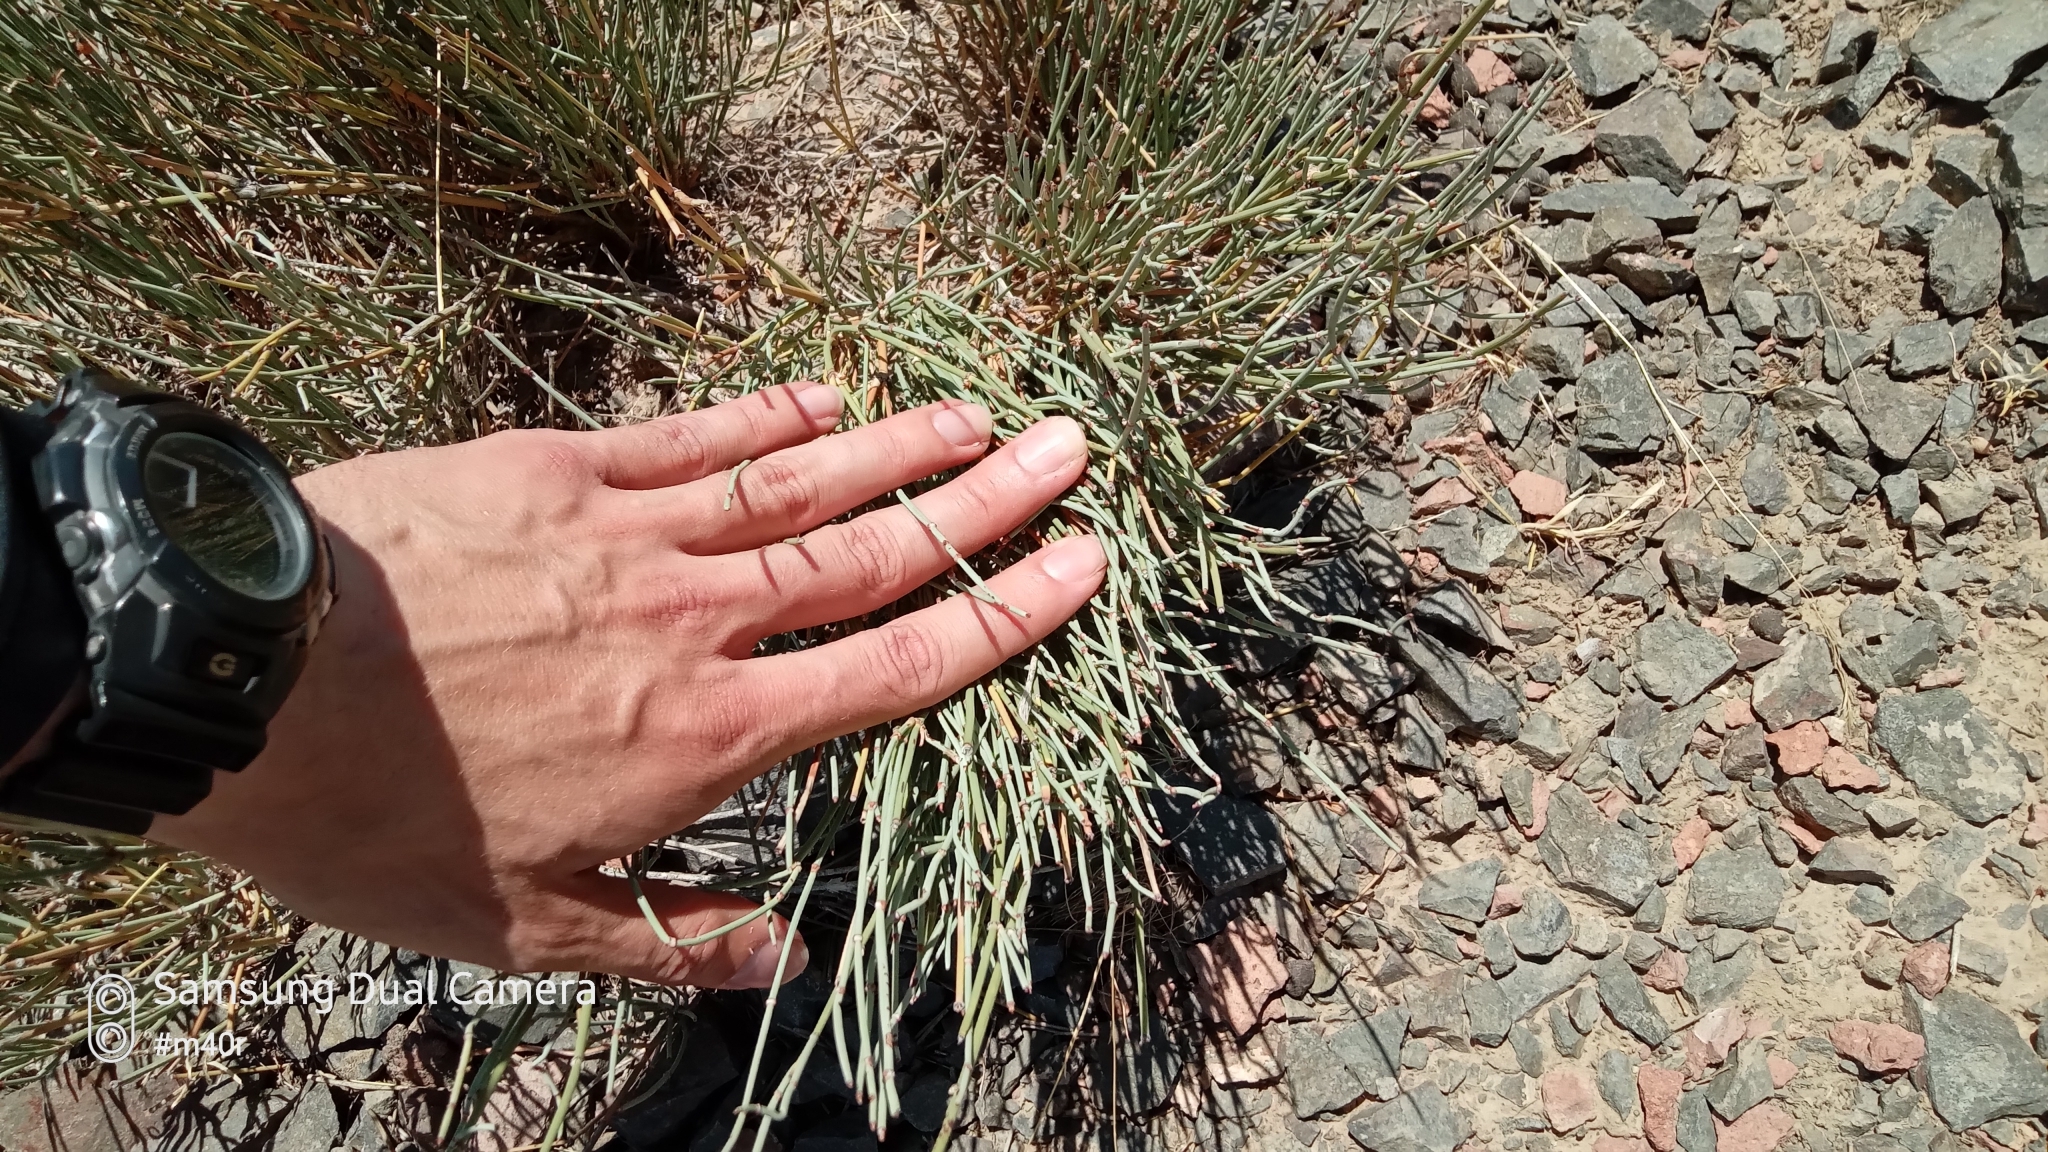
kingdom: Plantae
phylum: Tracheophyta
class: Gnetopsida
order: Ephedrales
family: Ephedraceae
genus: Ephedra
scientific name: Ephedra intermedia
